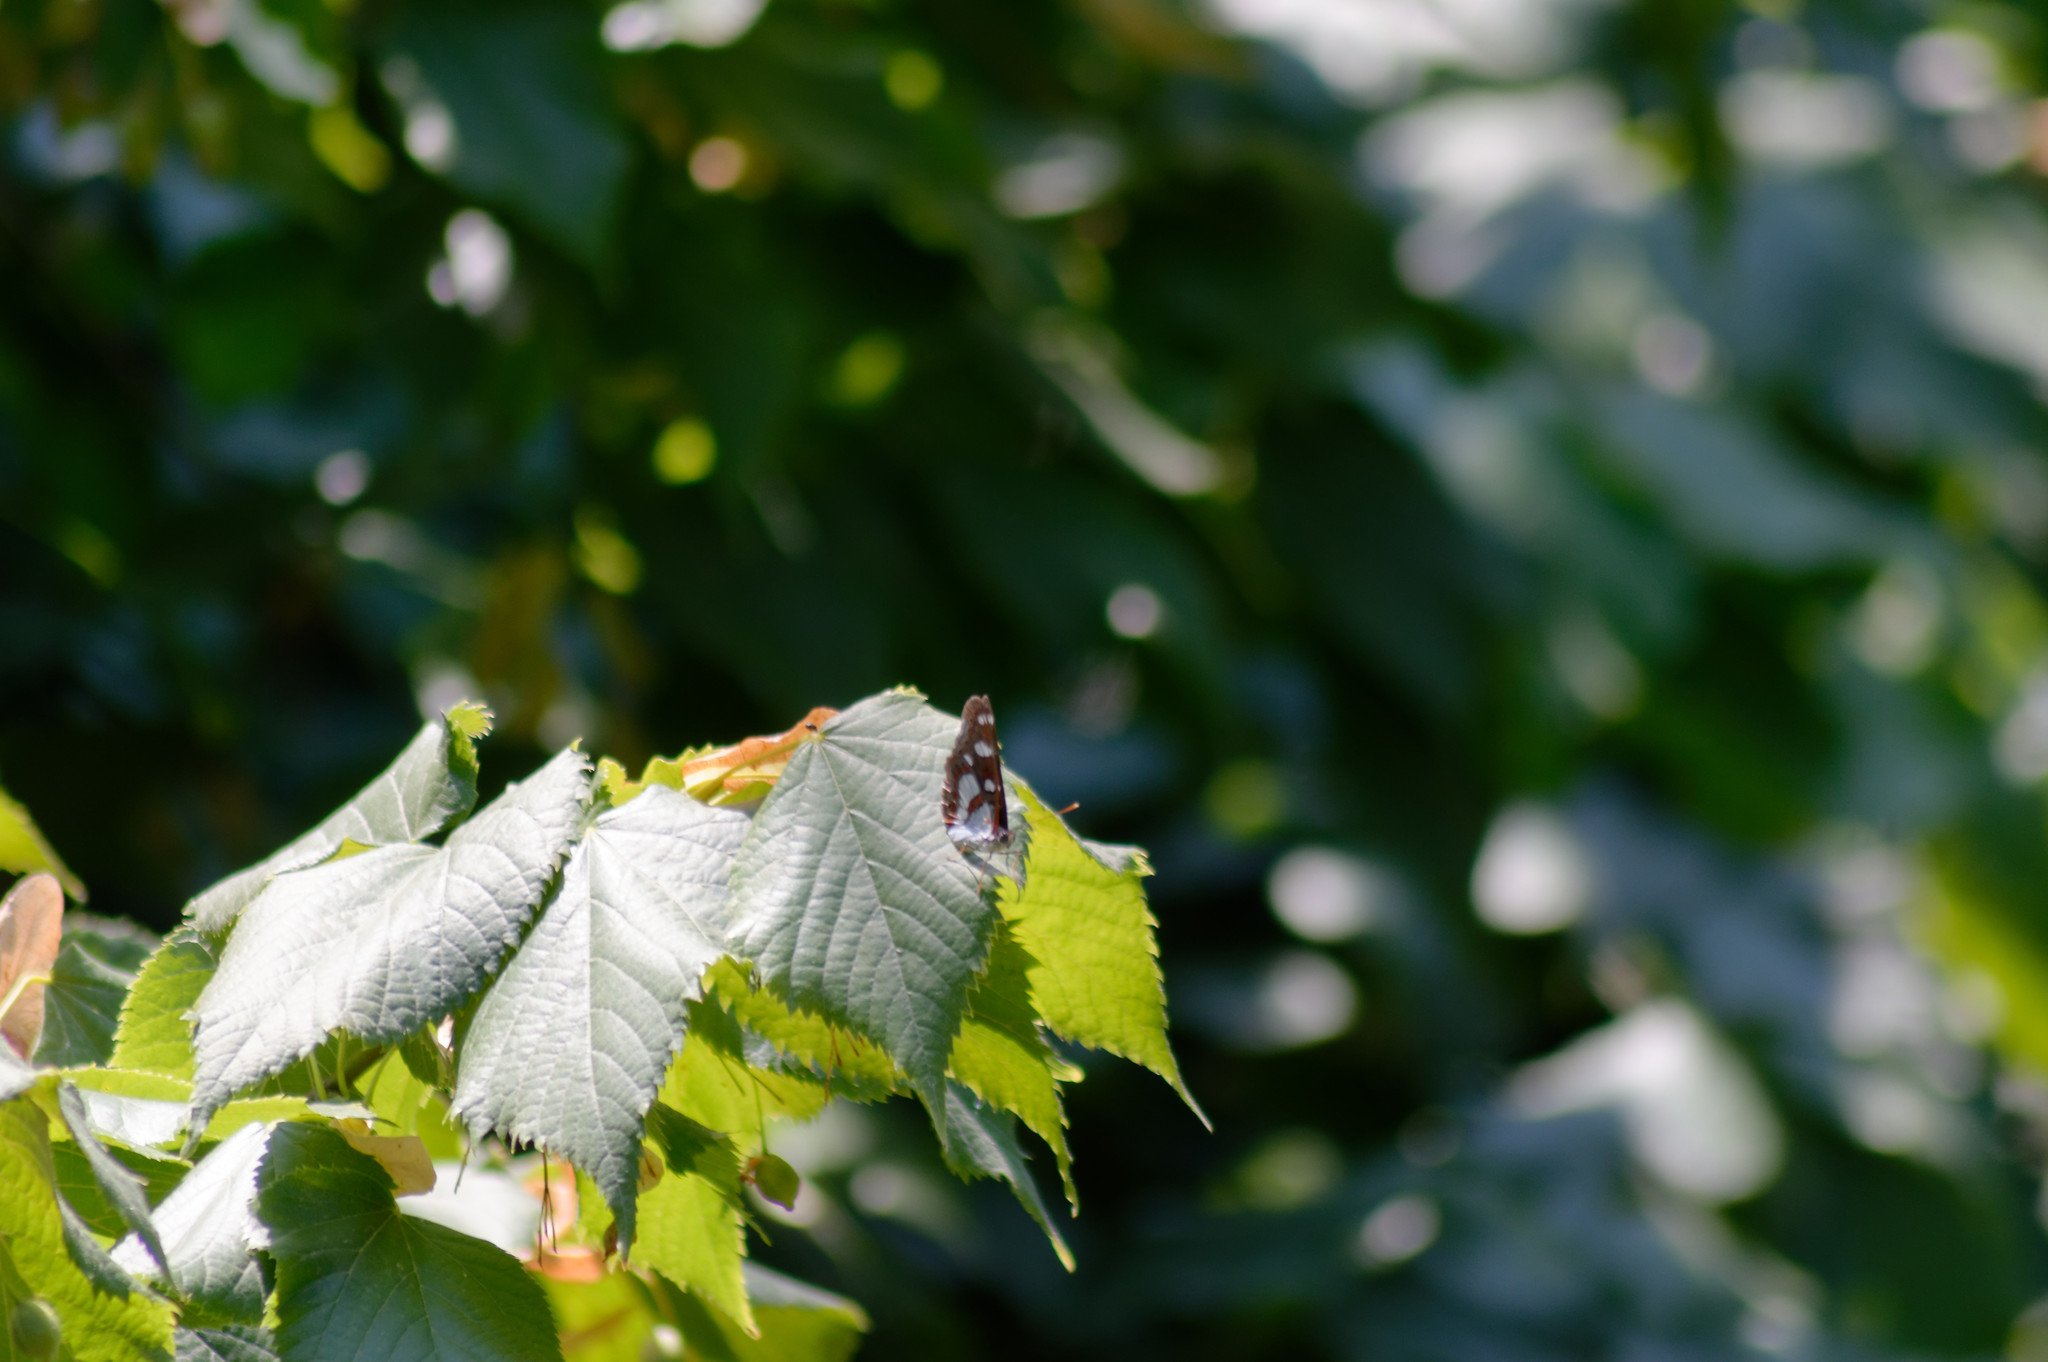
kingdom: Animalia
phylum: Arthropoda
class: Insecta
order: Lepidoptera
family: Nymphalidae
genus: Limenitis
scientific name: Limenitis reducta
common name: Southern white admiral
